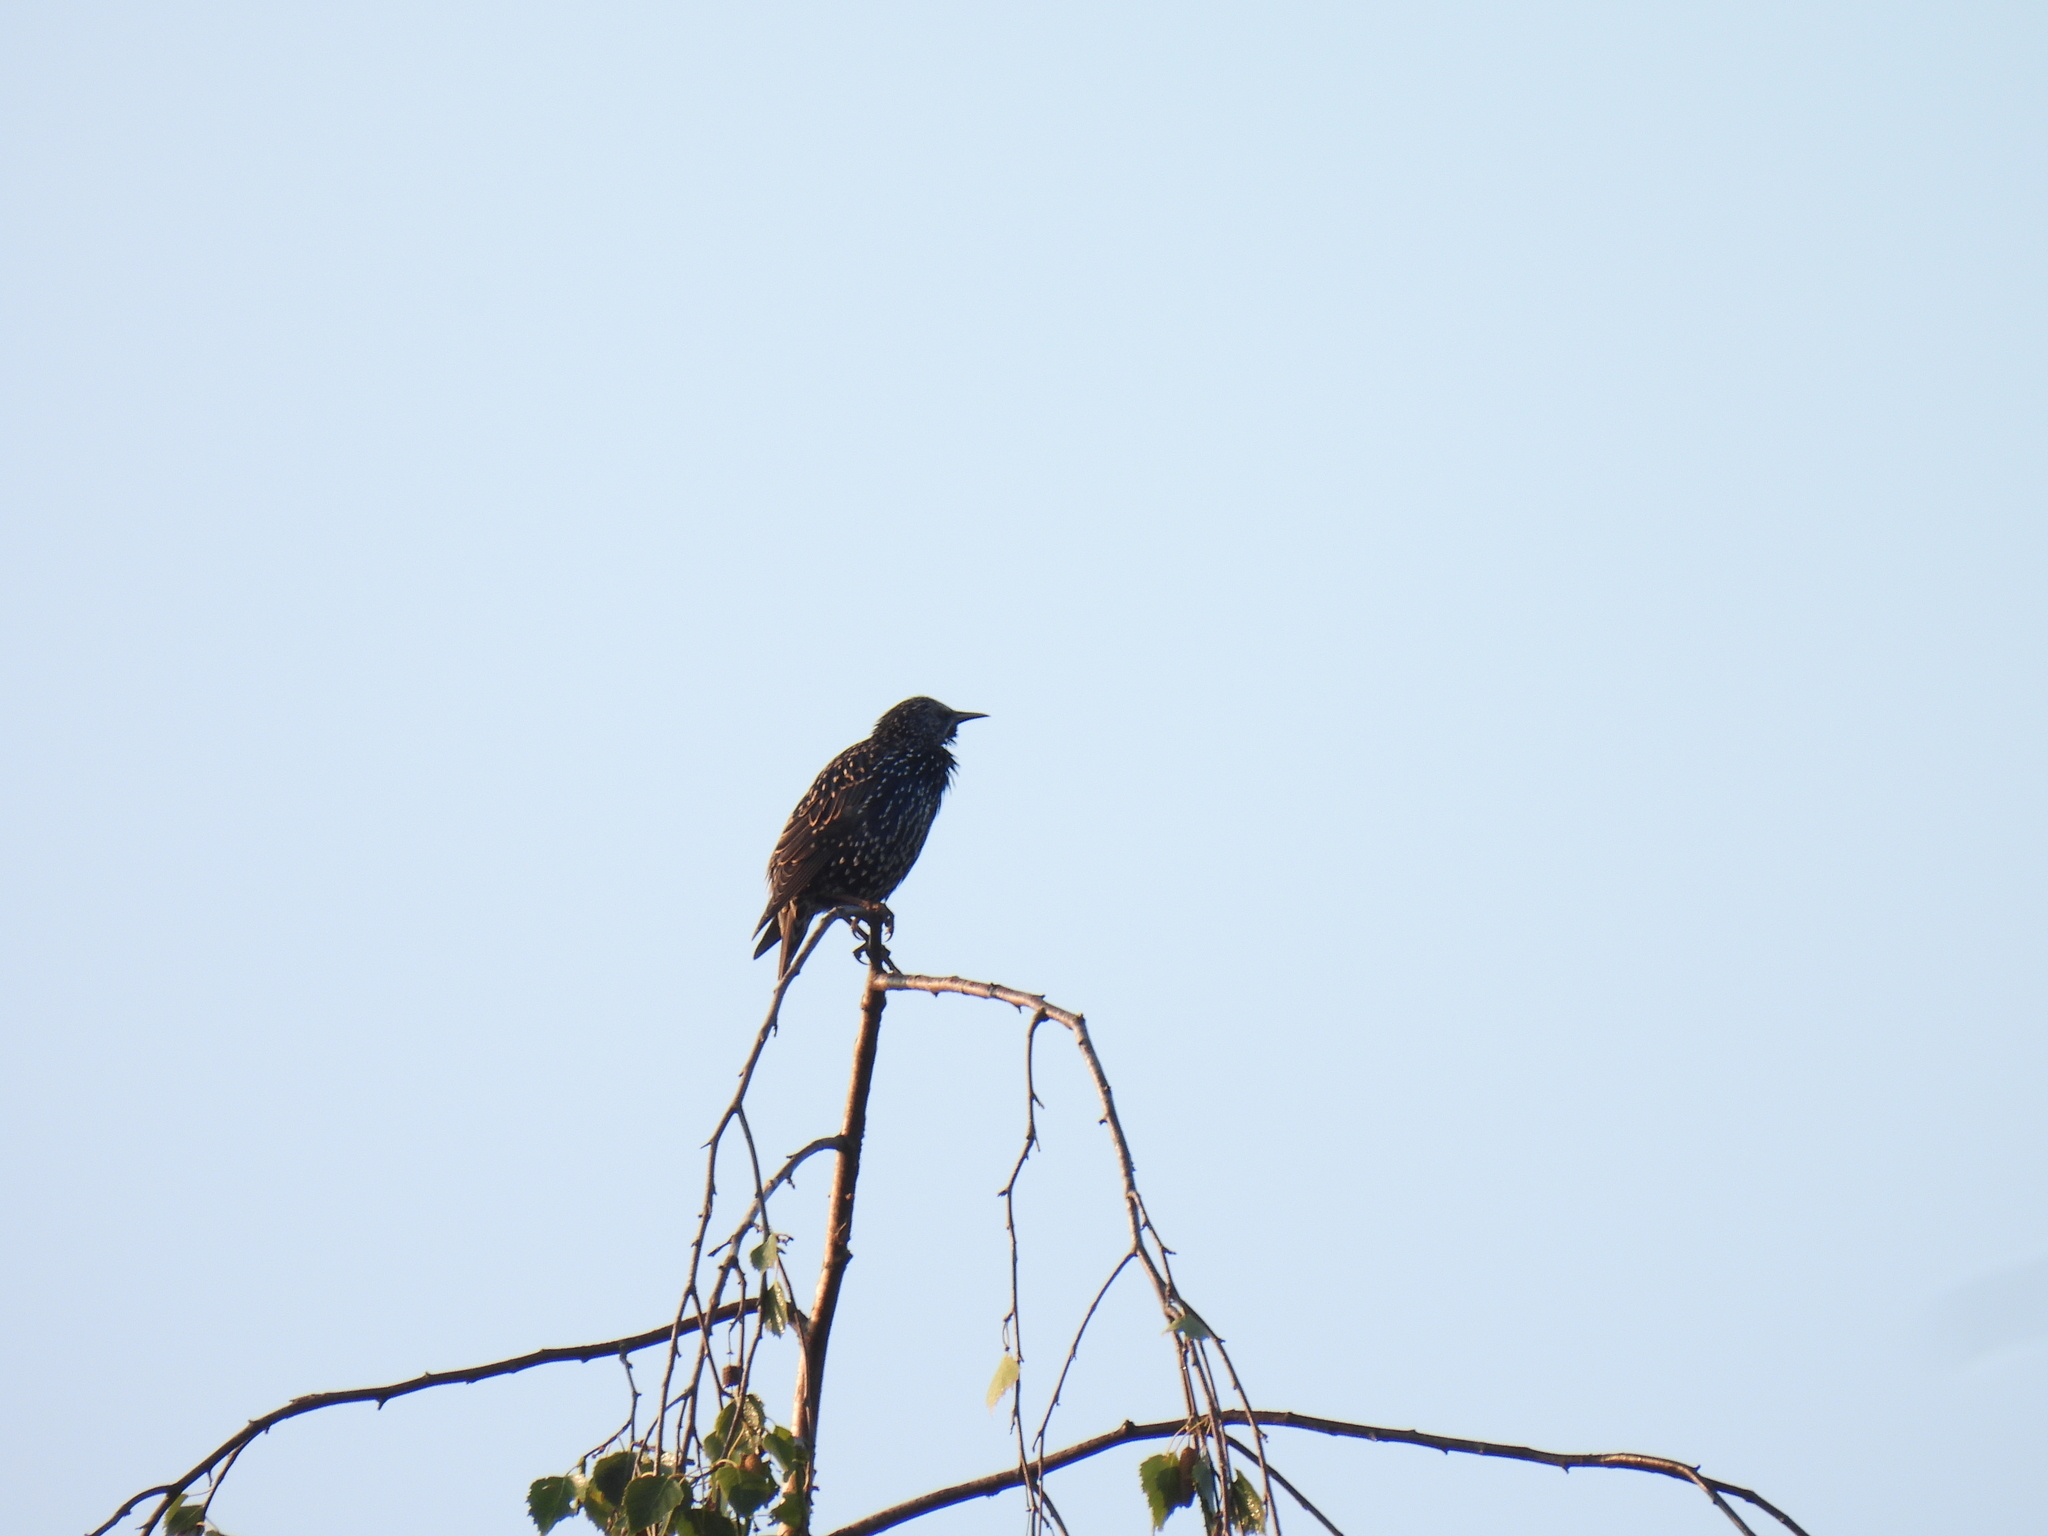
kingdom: Animalia
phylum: Chordata
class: Aves
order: Passeriformes
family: Sturnidae
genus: Sturnus
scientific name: Sturnus vulgaris
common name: Common starling
